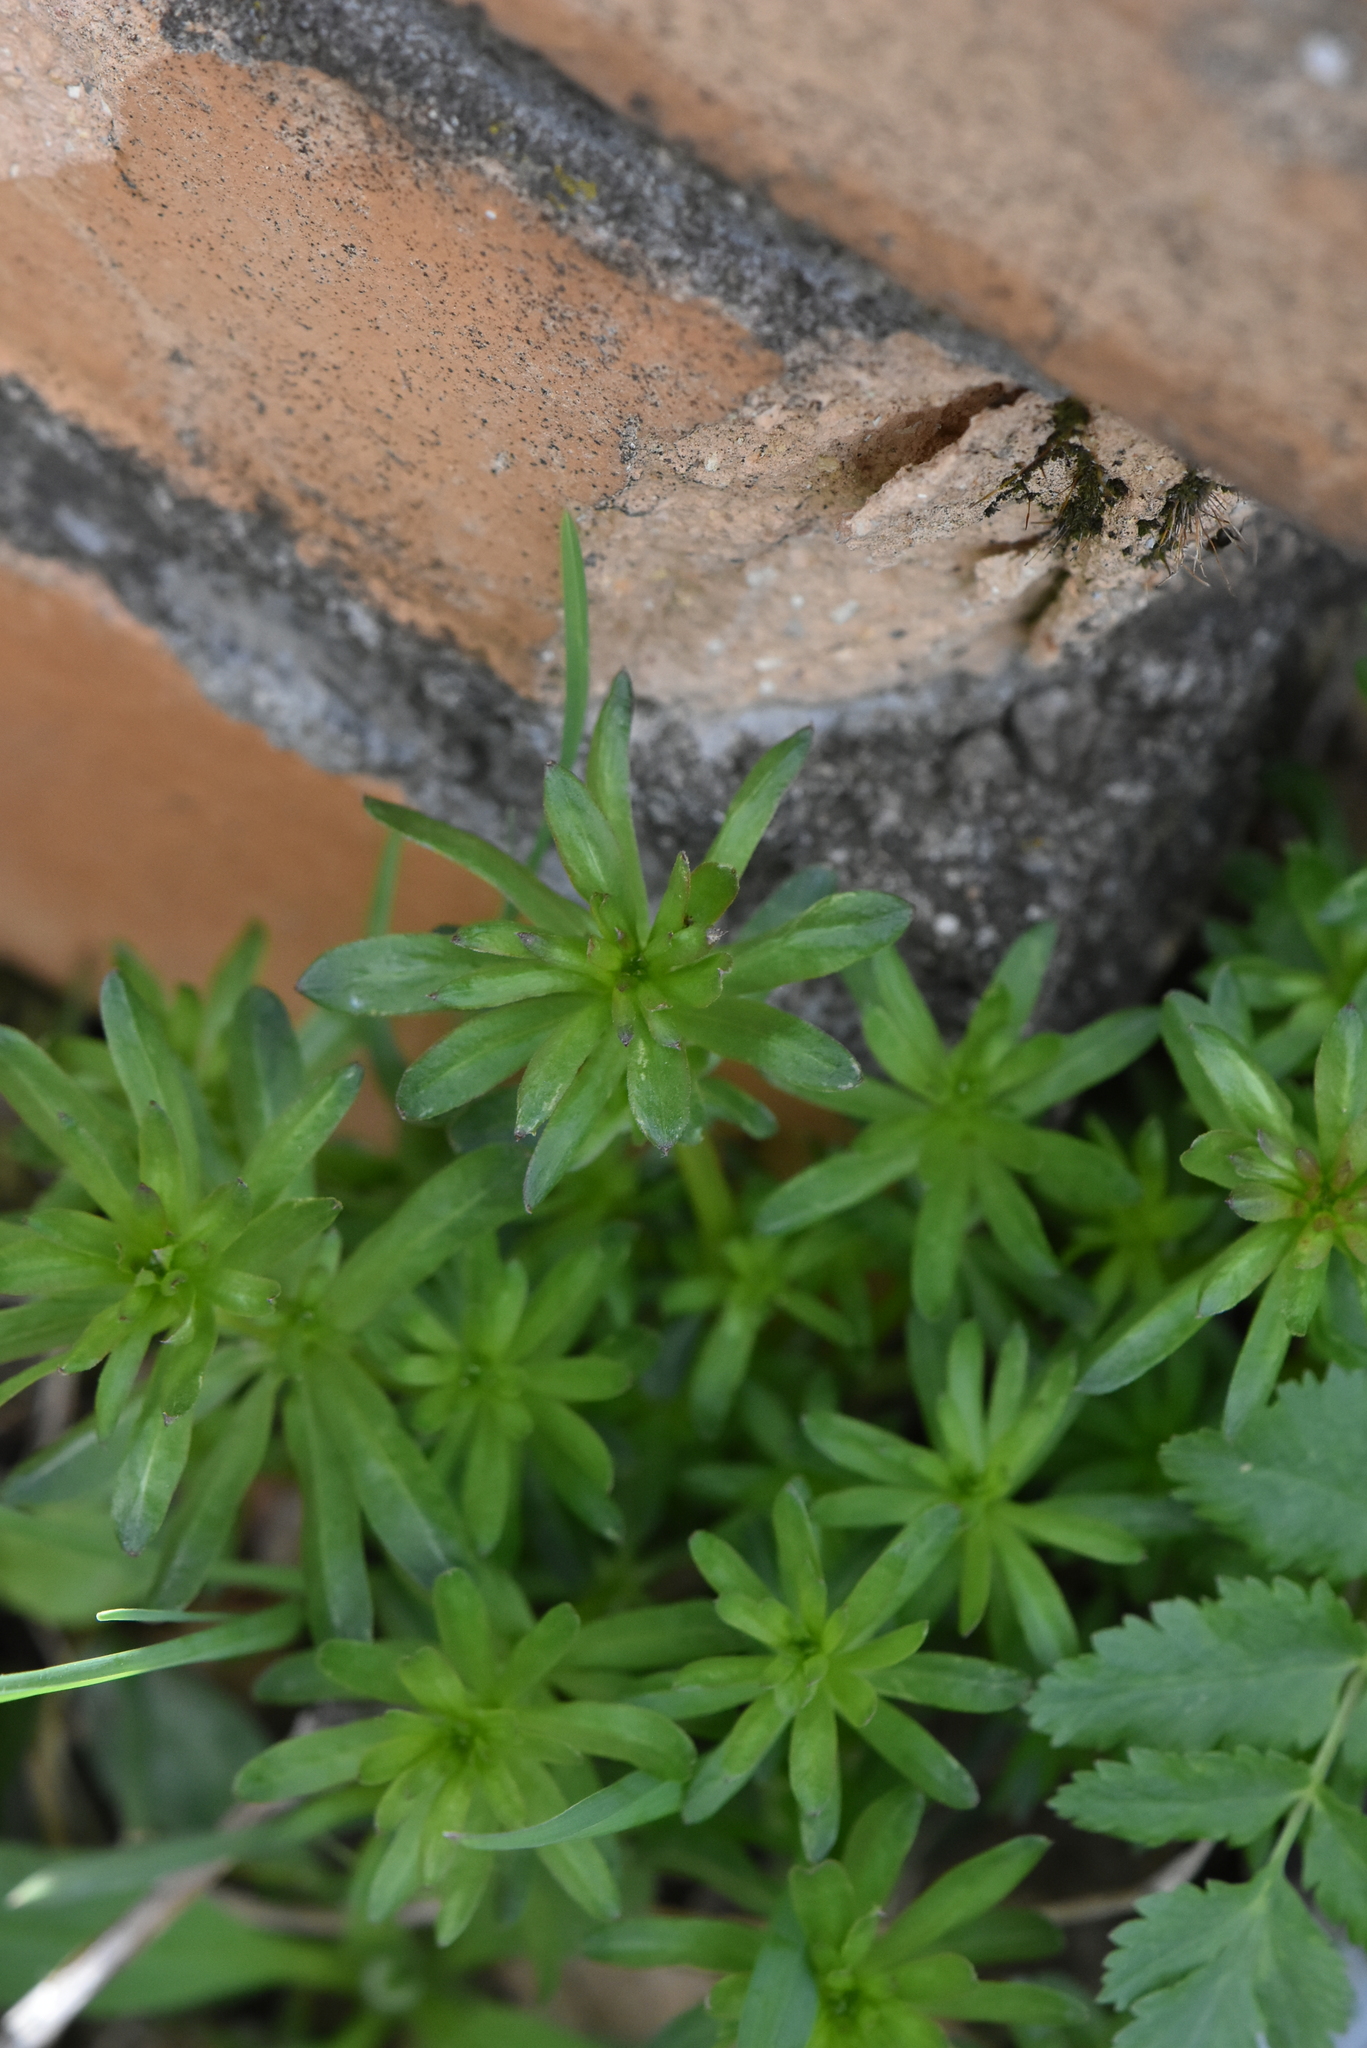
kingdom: Plantae
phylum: Tracheophyta
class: Magnoliopsida
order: Gentianales
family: Rubiaceae
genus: Galium
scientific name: Galium mollugo
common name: Hedge bedstraw
